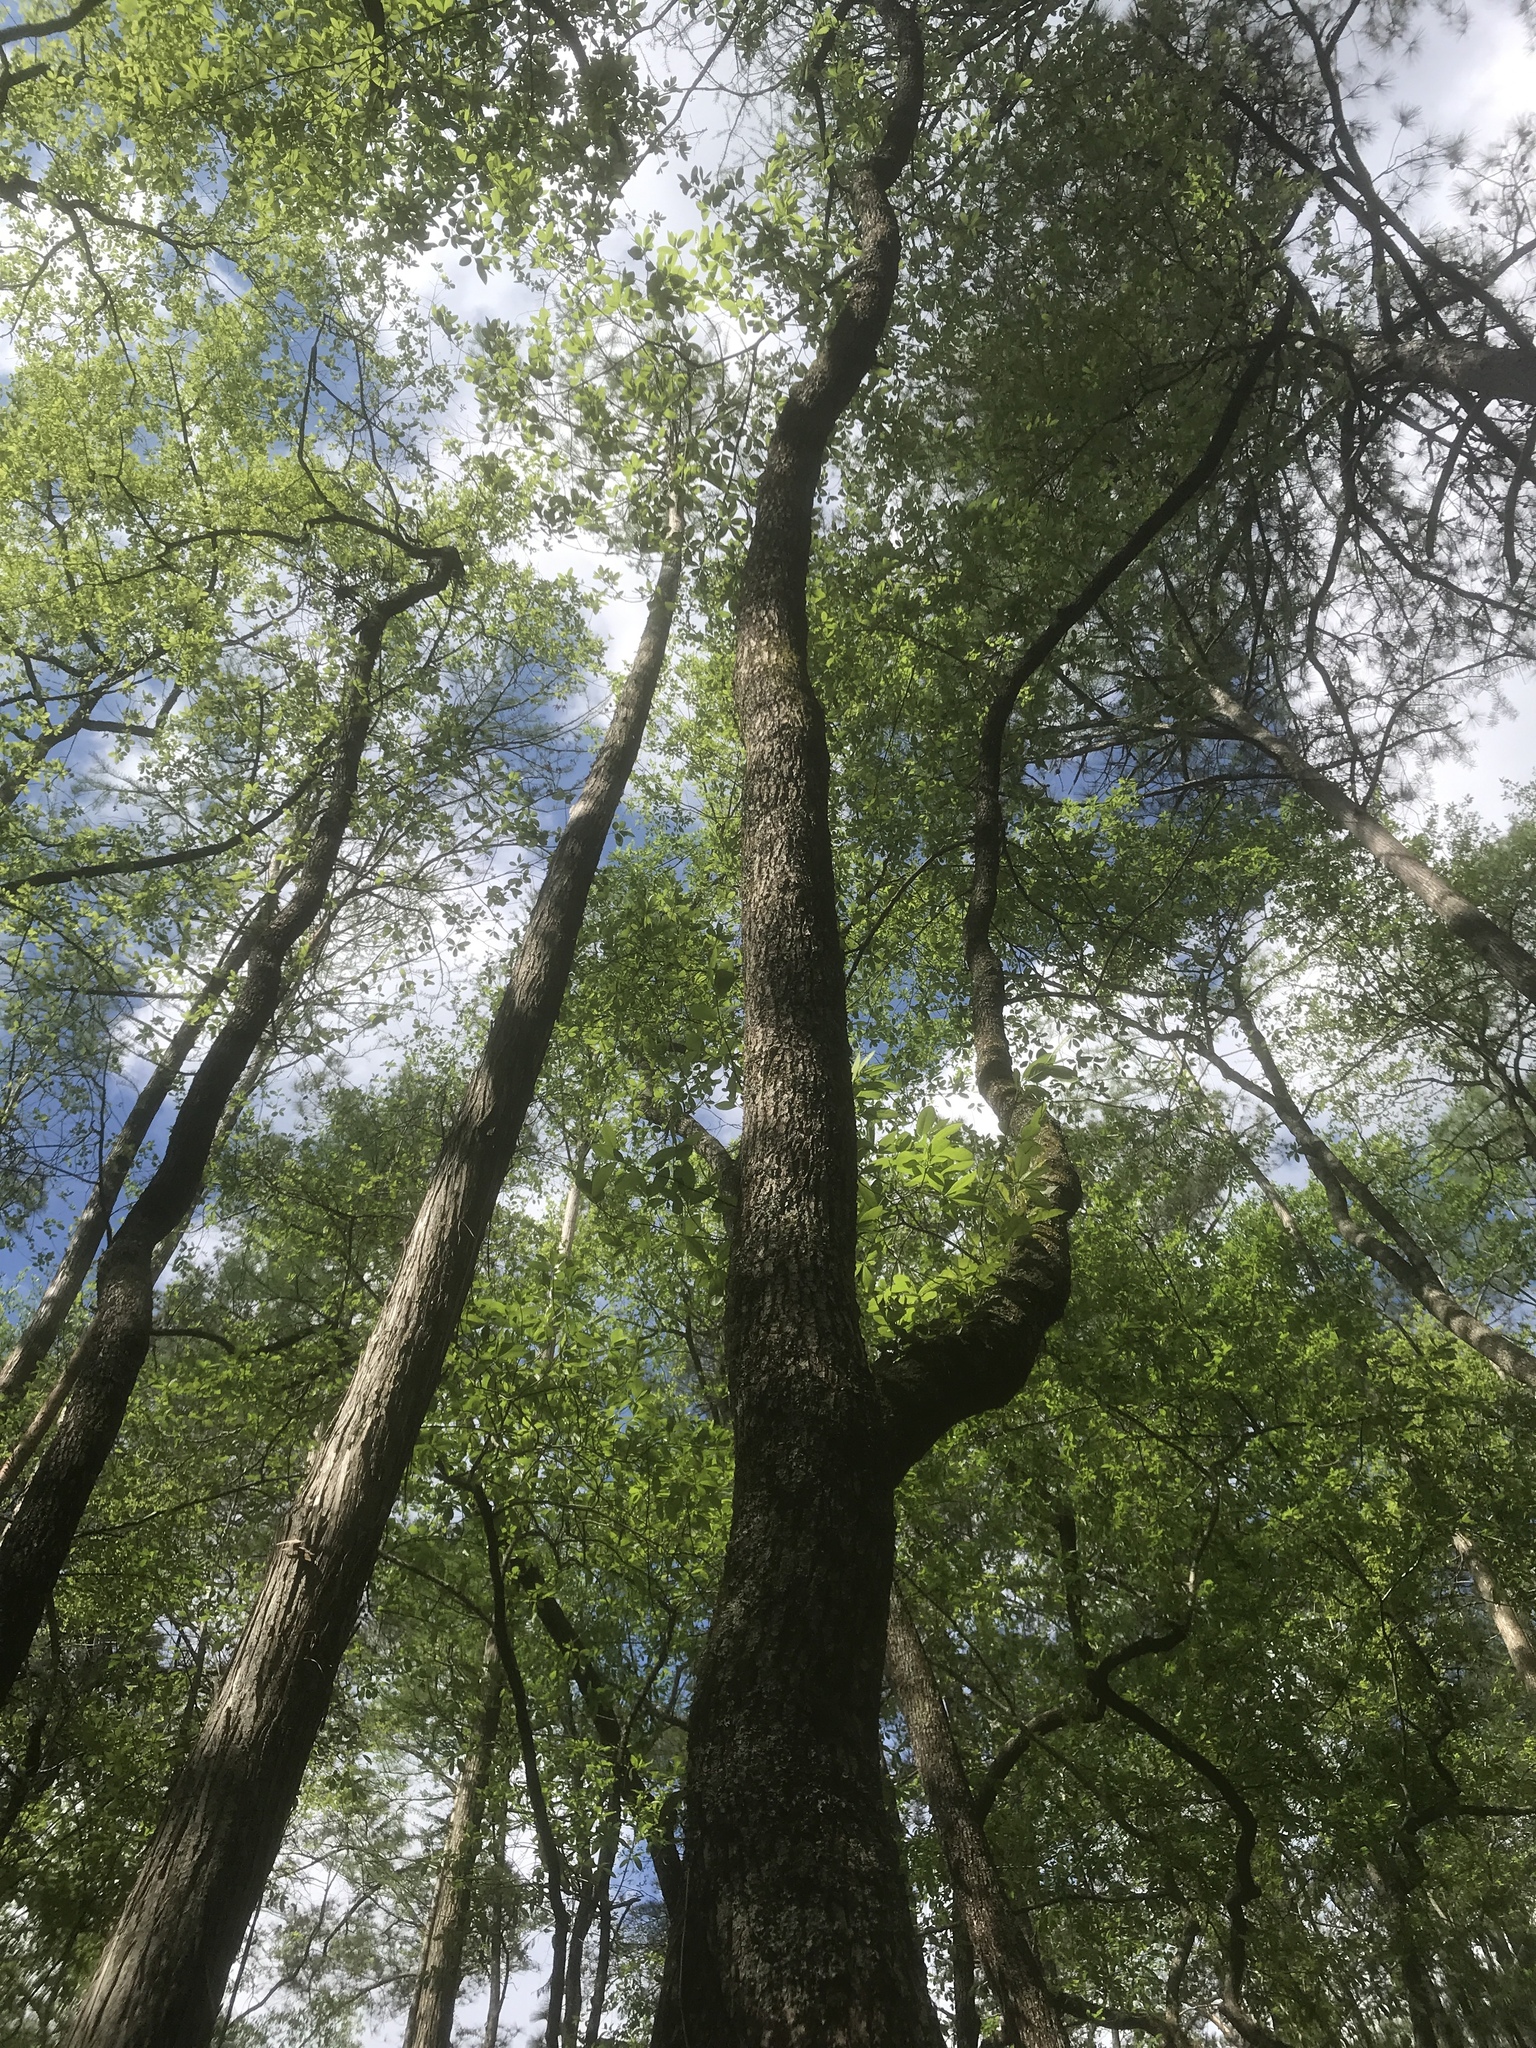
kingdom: Plantae
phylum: Tracheophyta
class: Magnoliopsida
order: Cornales
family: Nyssaceae
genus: Nyssa
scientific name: Nyssa biflora
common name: Swamp blackgum
